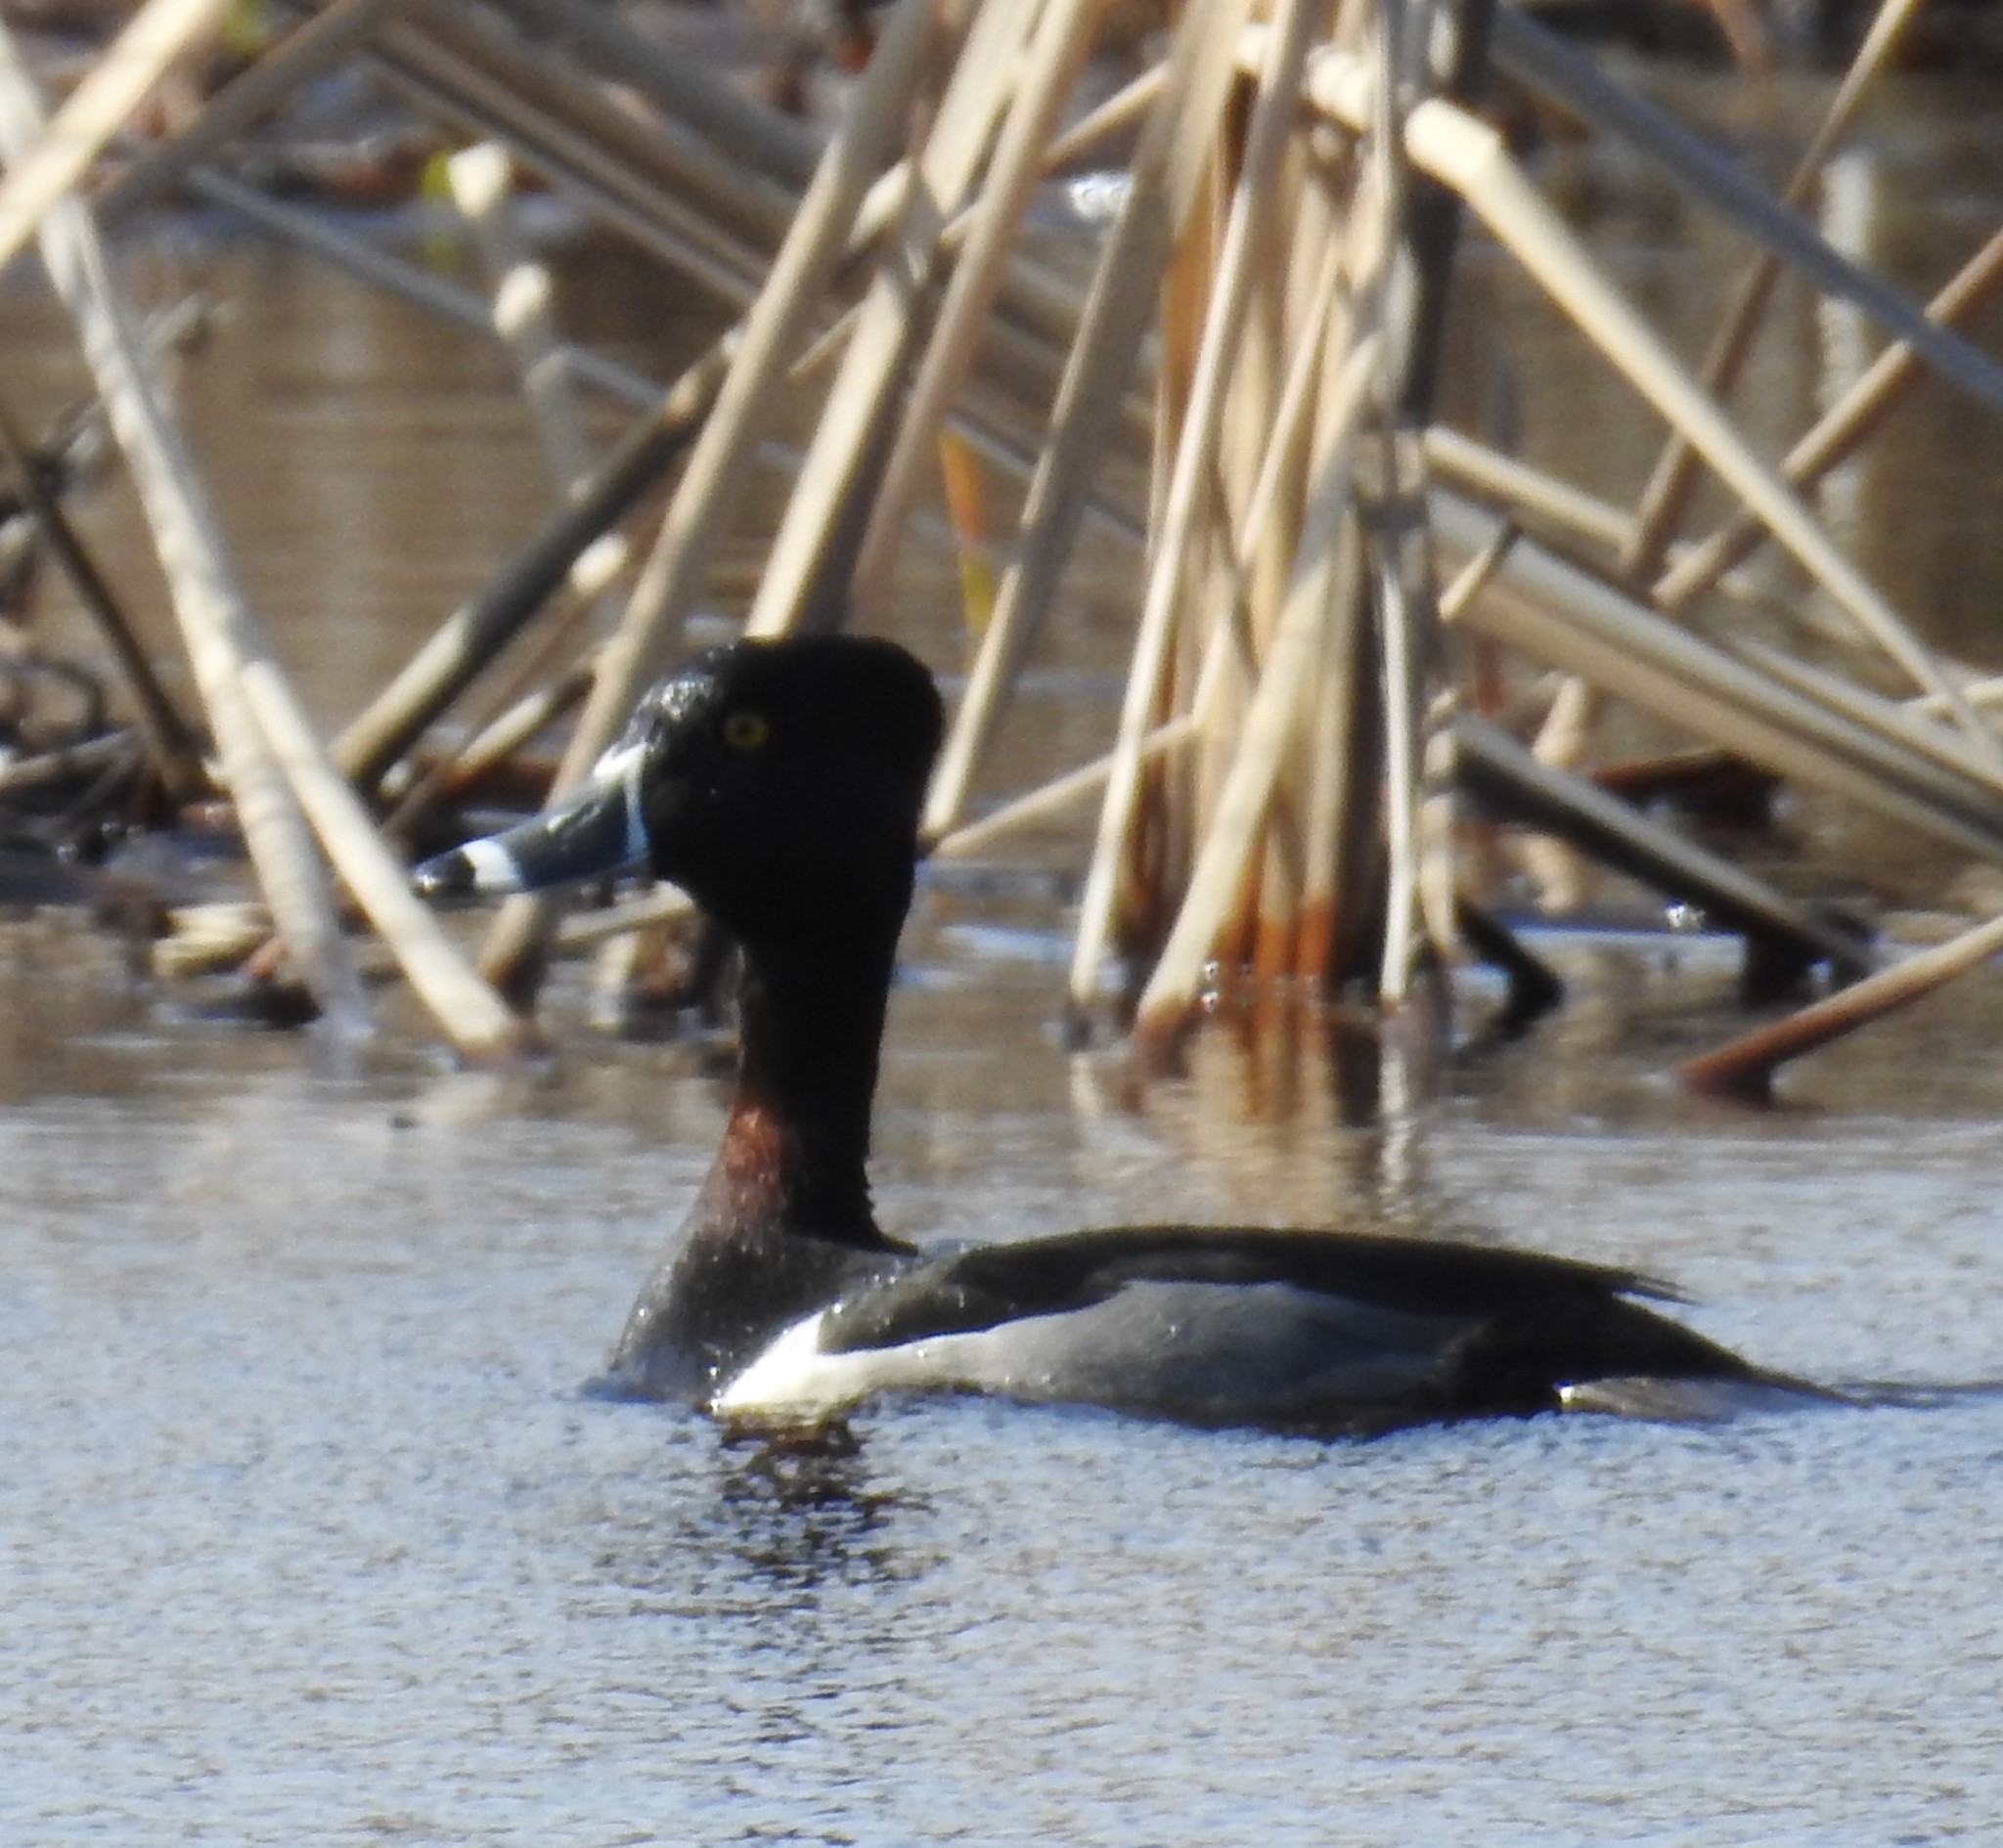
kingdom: Animalia
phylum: Chordata
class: Aves
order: Anseriformes
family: Anatidae
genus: Aythya
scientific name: Aythya collaris
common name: Ring-necked duck
